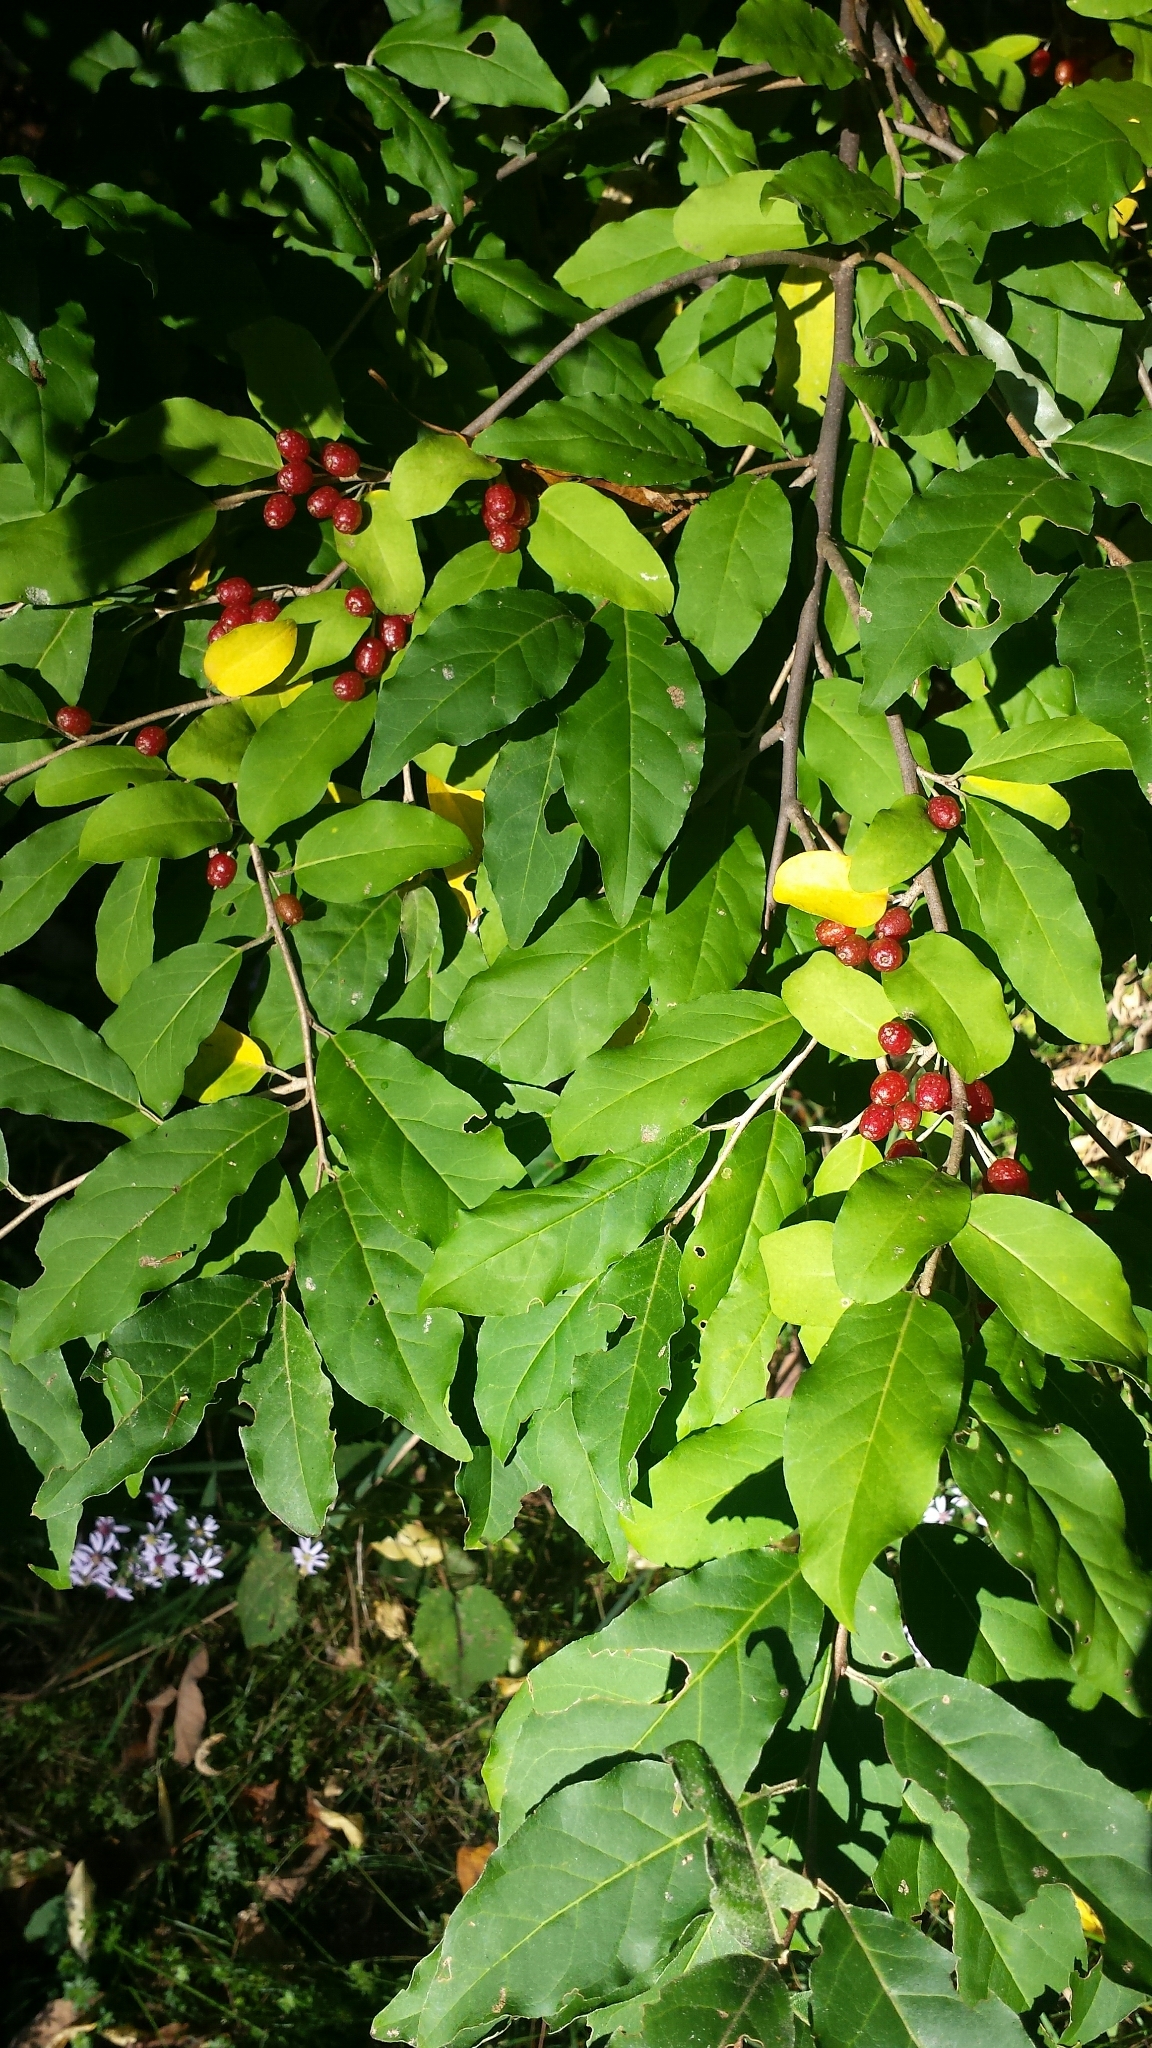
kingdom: Plantae
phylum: Tracheophyta
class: Magnoliopsida
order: Rosales
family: Elaeagnaceae
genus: Elaeagnus
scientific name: Elaeagnus umbellata
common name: Autumn olive
